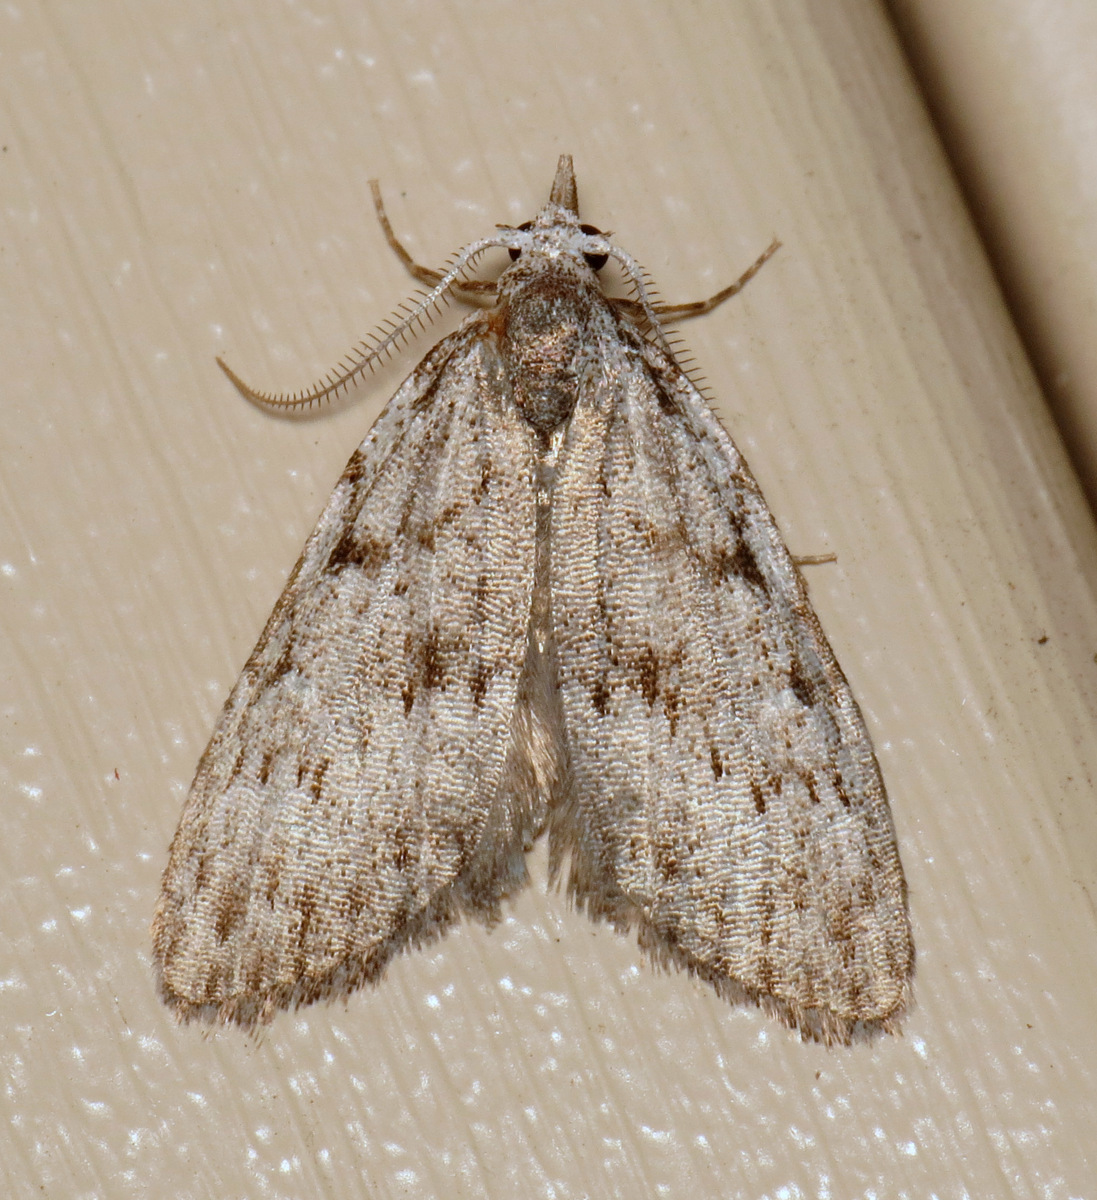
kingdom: Animalia
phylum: Arthropoda
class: Insecta
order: Lepidoptera
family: Nolidae
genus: Nola
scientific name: Nola clethrae
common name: Sweet pepperbush nola moth
